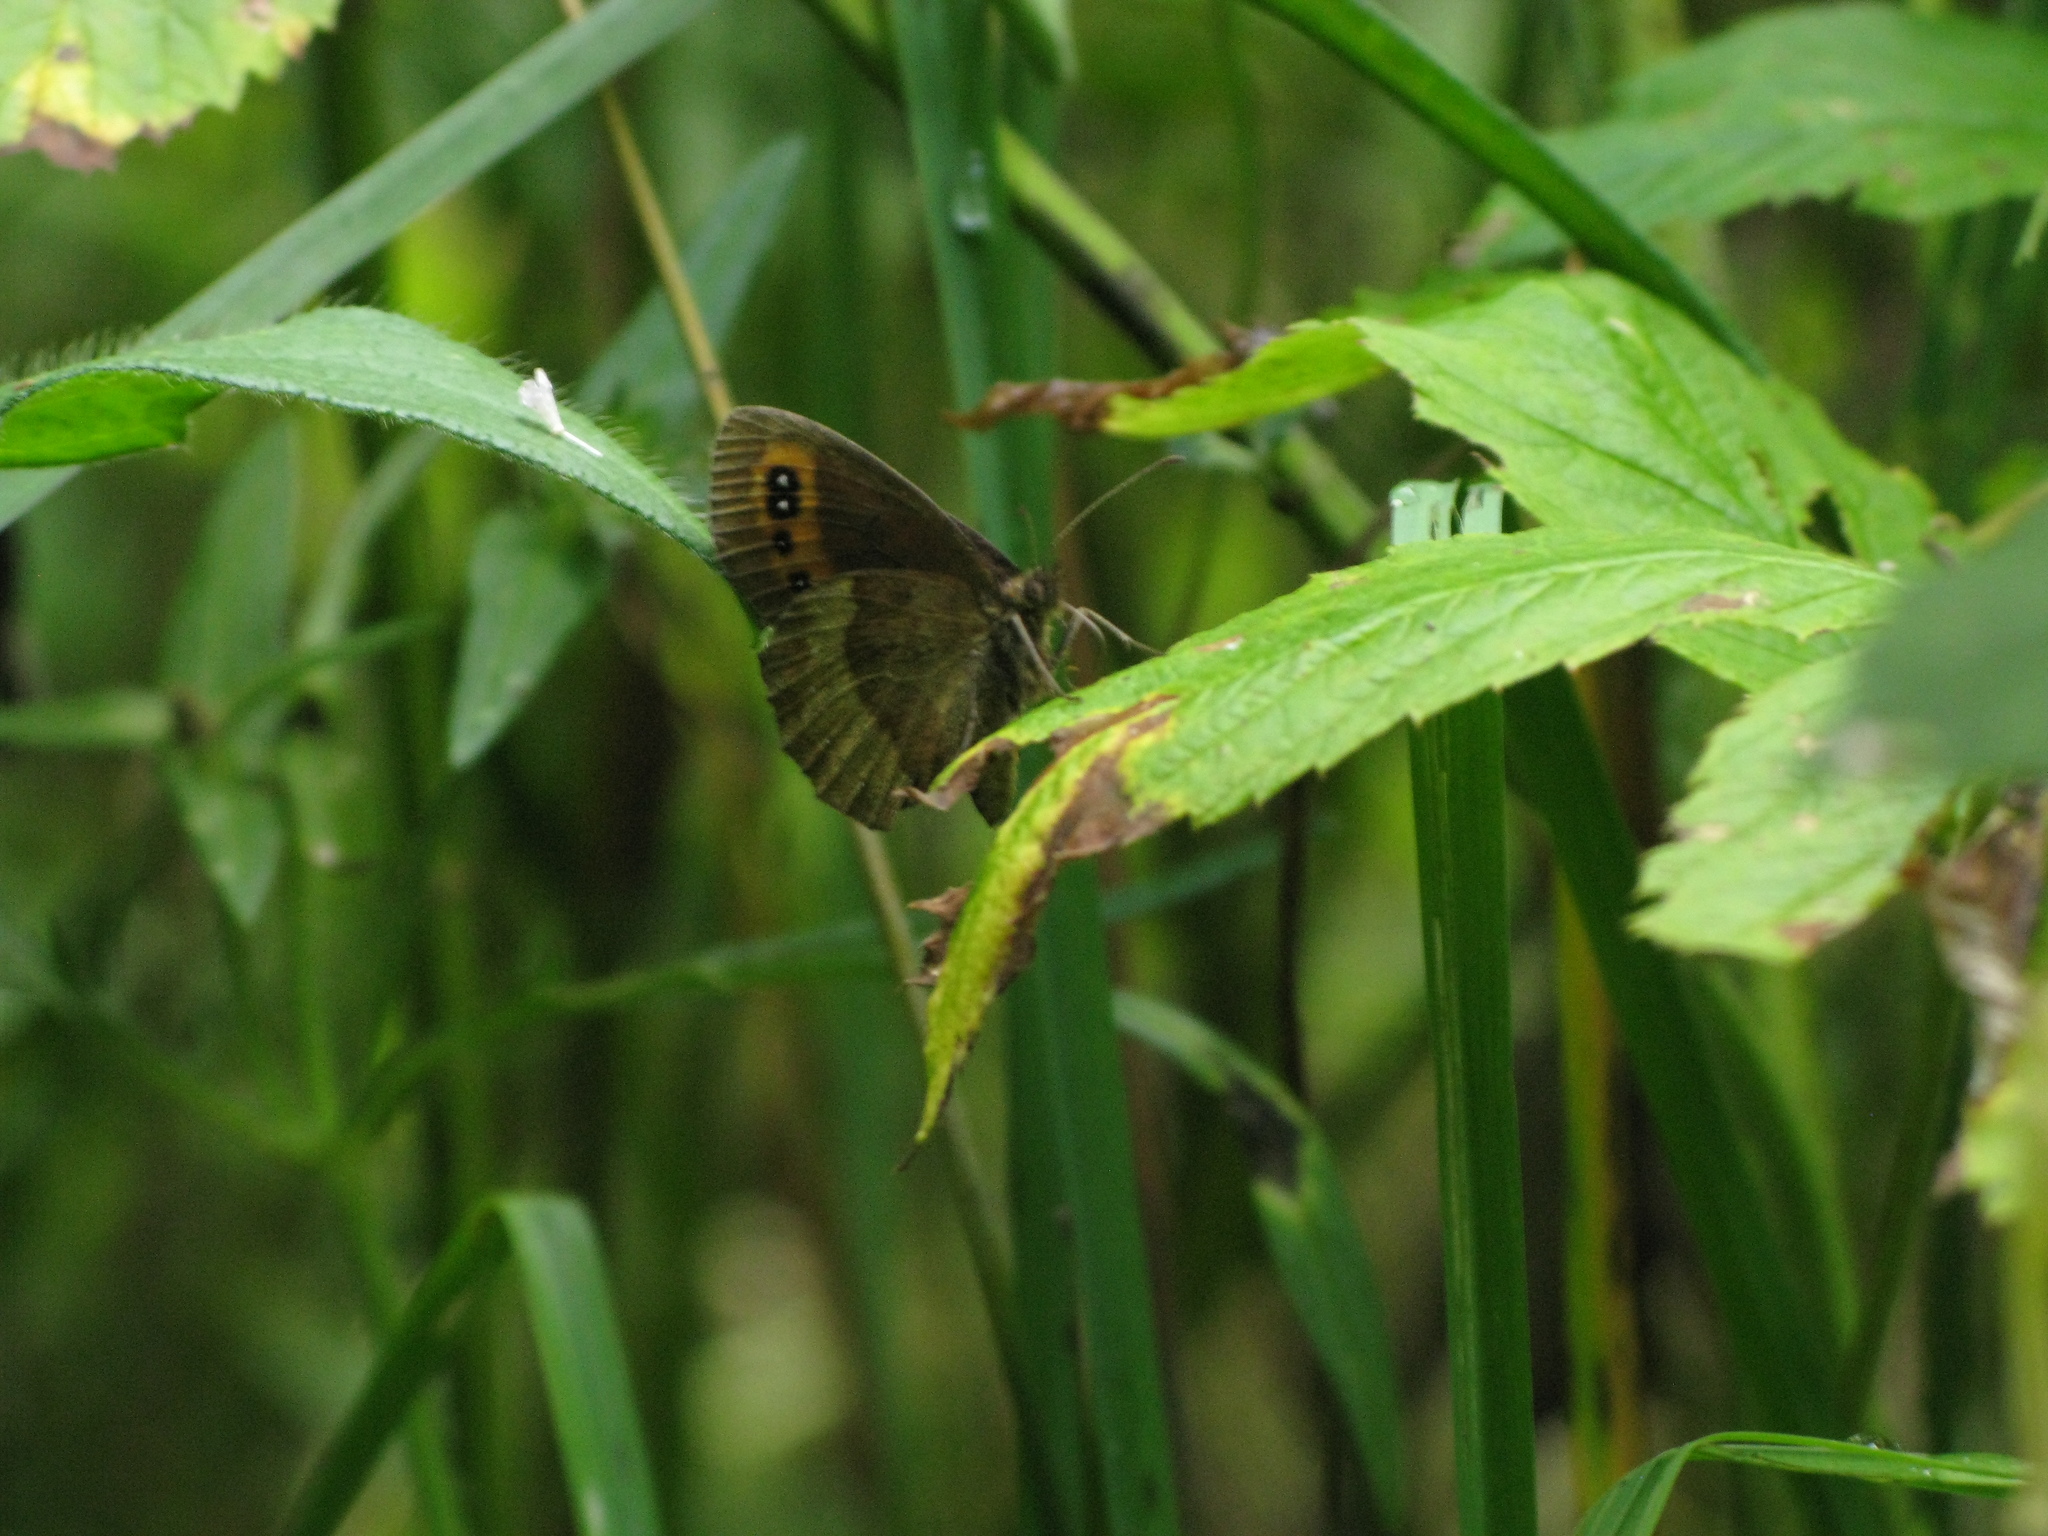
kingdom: Animalia
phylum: Arthropoda
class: Insecta
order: Lepidoptera
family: Nymphalidae
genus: Erebia
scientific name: Erebia aethiops
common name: Scotch argus
